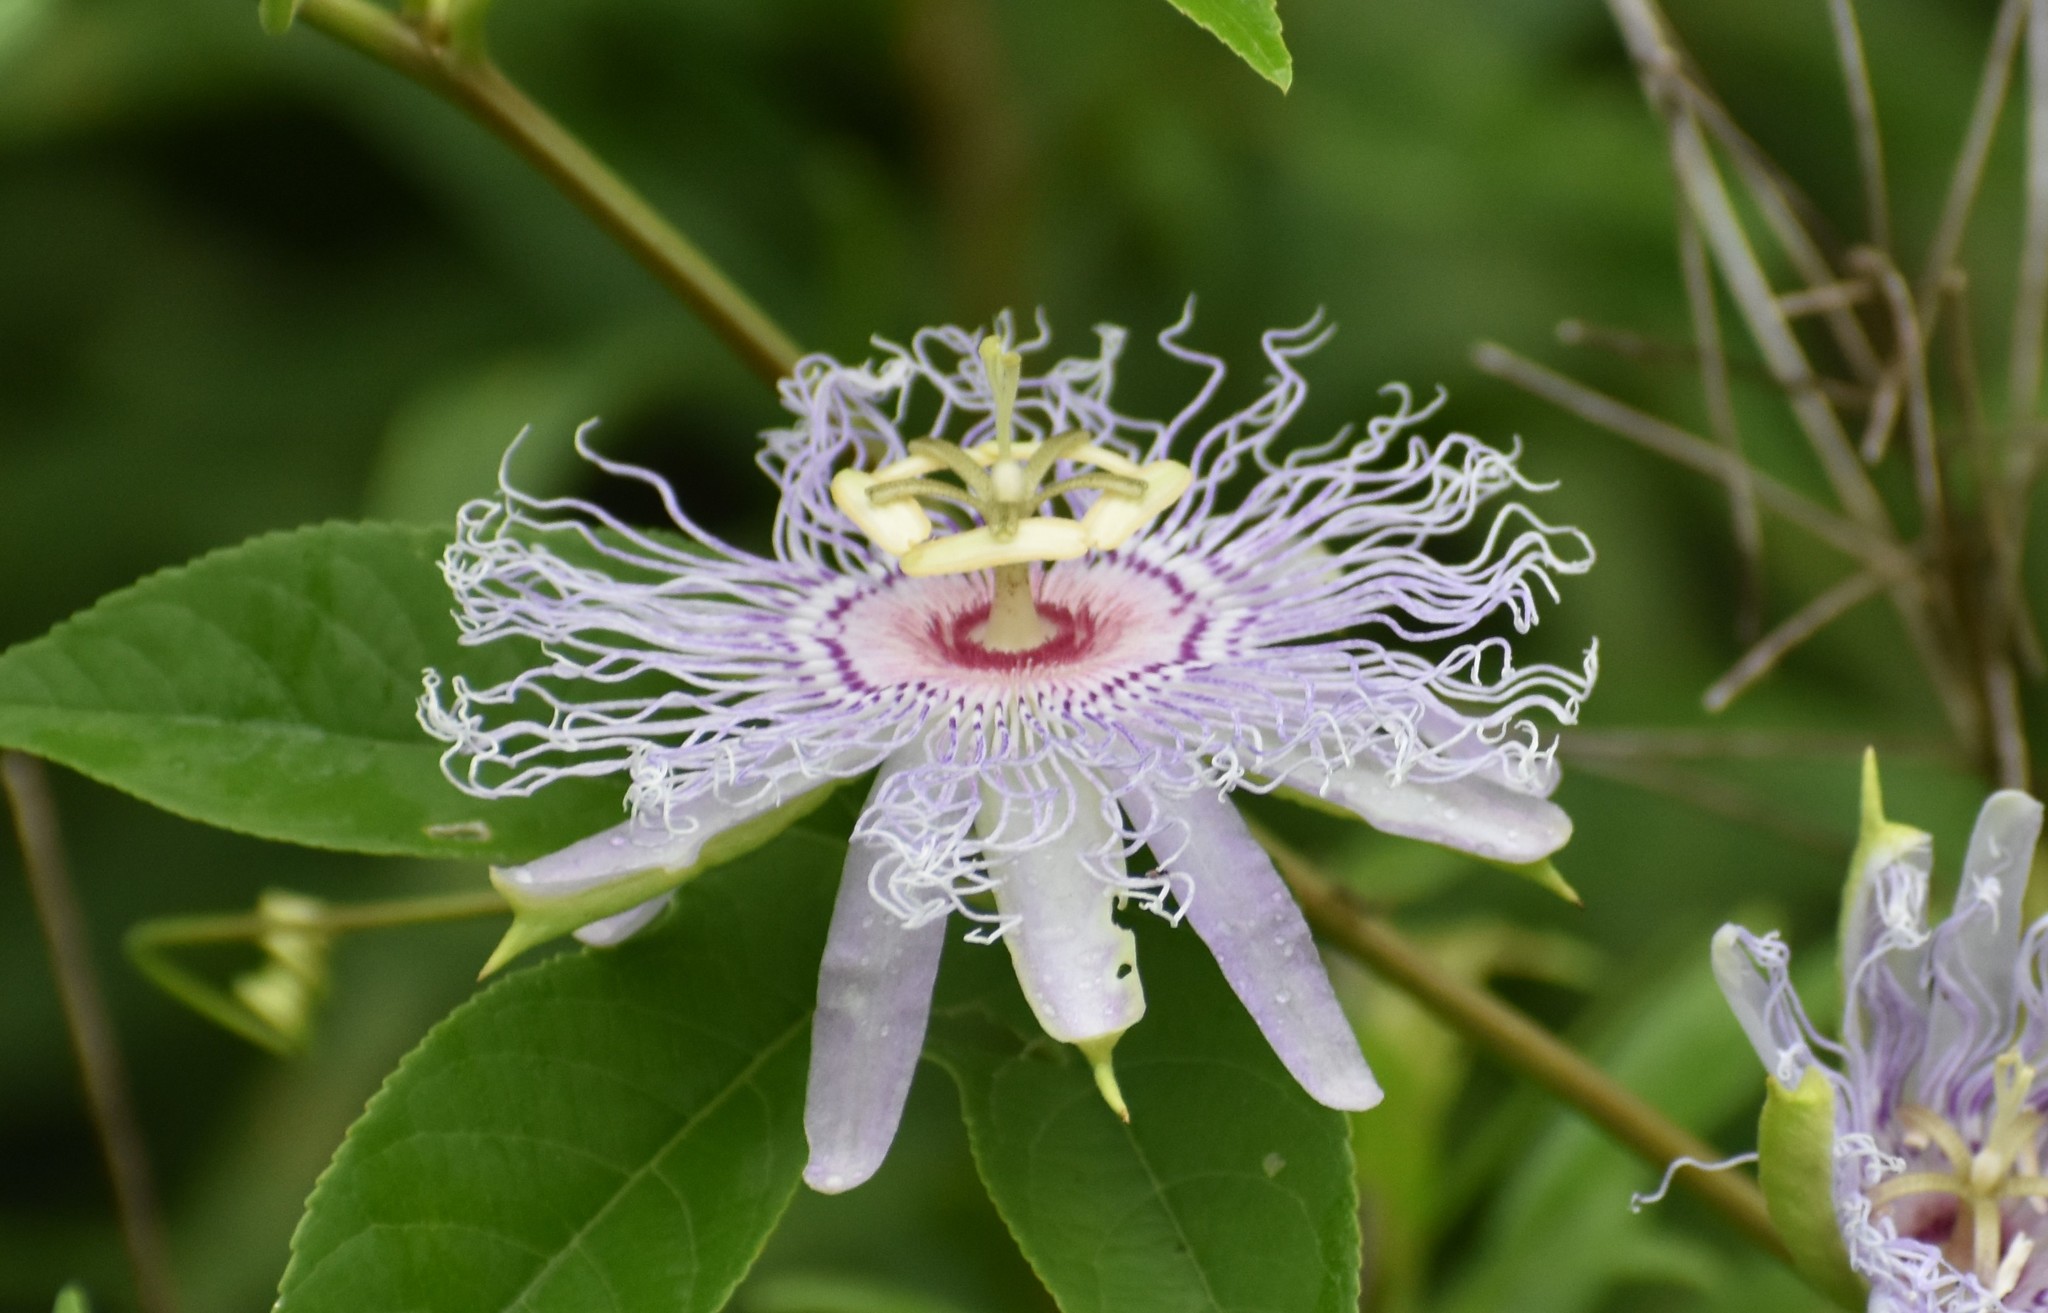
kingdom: Plantae
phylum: Tracheophyta
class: Magnoliopsida
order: Malpighiales
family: Passifloraceae
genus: Passiflora
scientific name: Passiflora incarnata
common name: Apricot-vine
